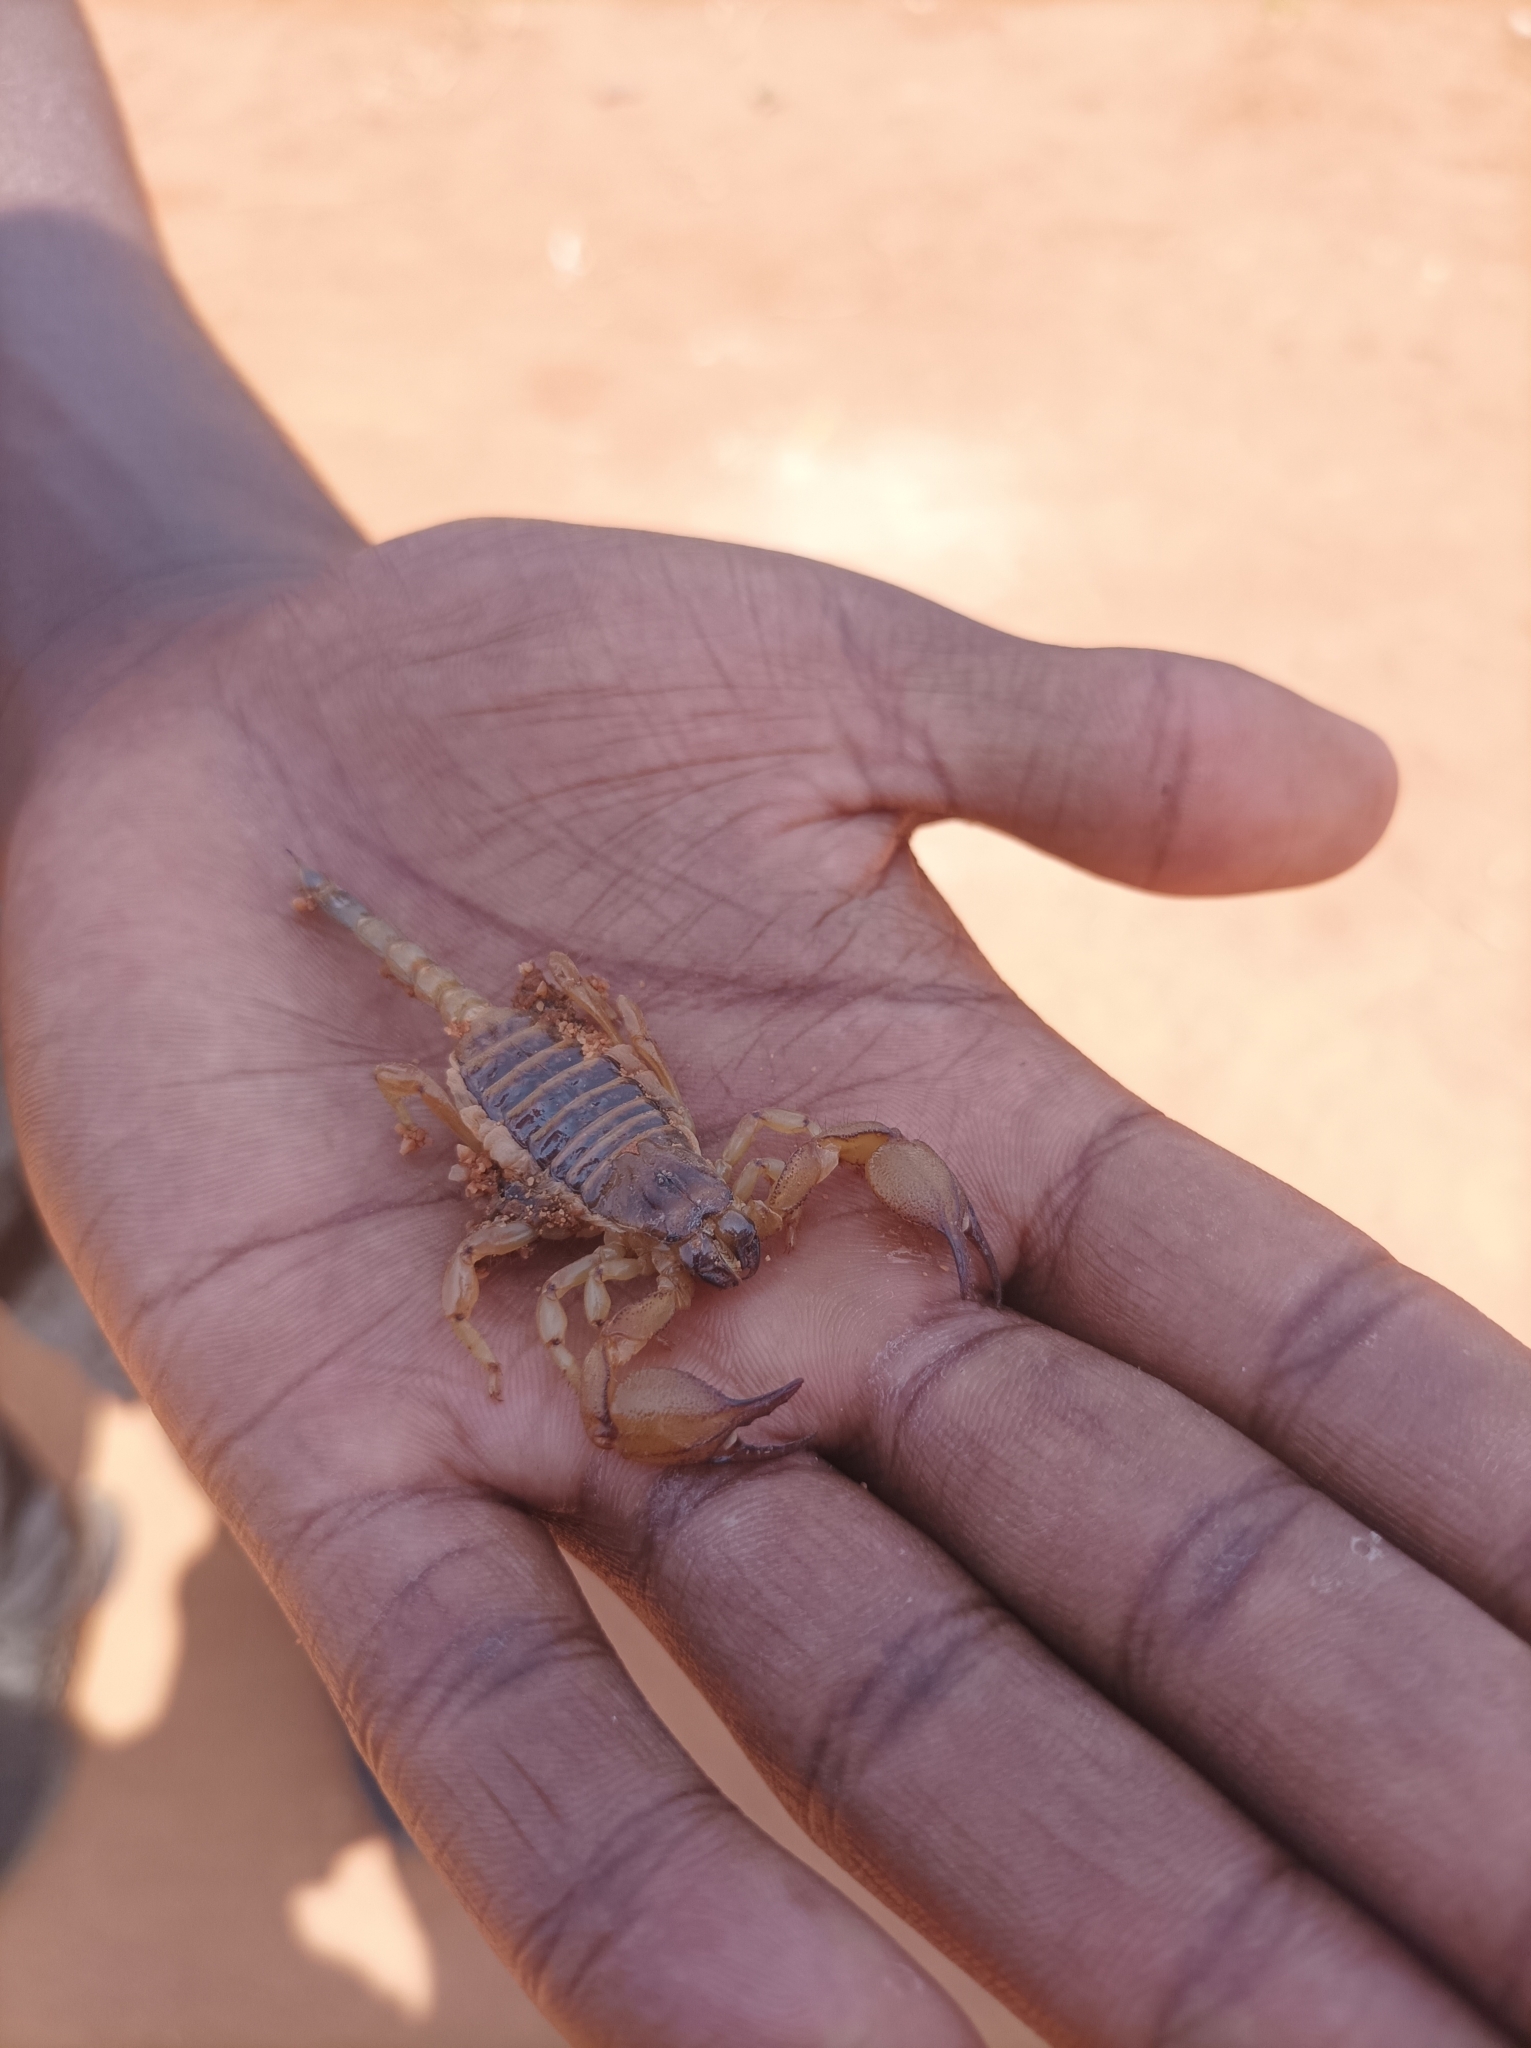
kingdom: Animalia
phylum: Arthropoda
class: Arachnida
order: Scorpiones
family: Scorpionidae
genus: Opistophthalmus
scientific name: Opistophthalmus boehmi
